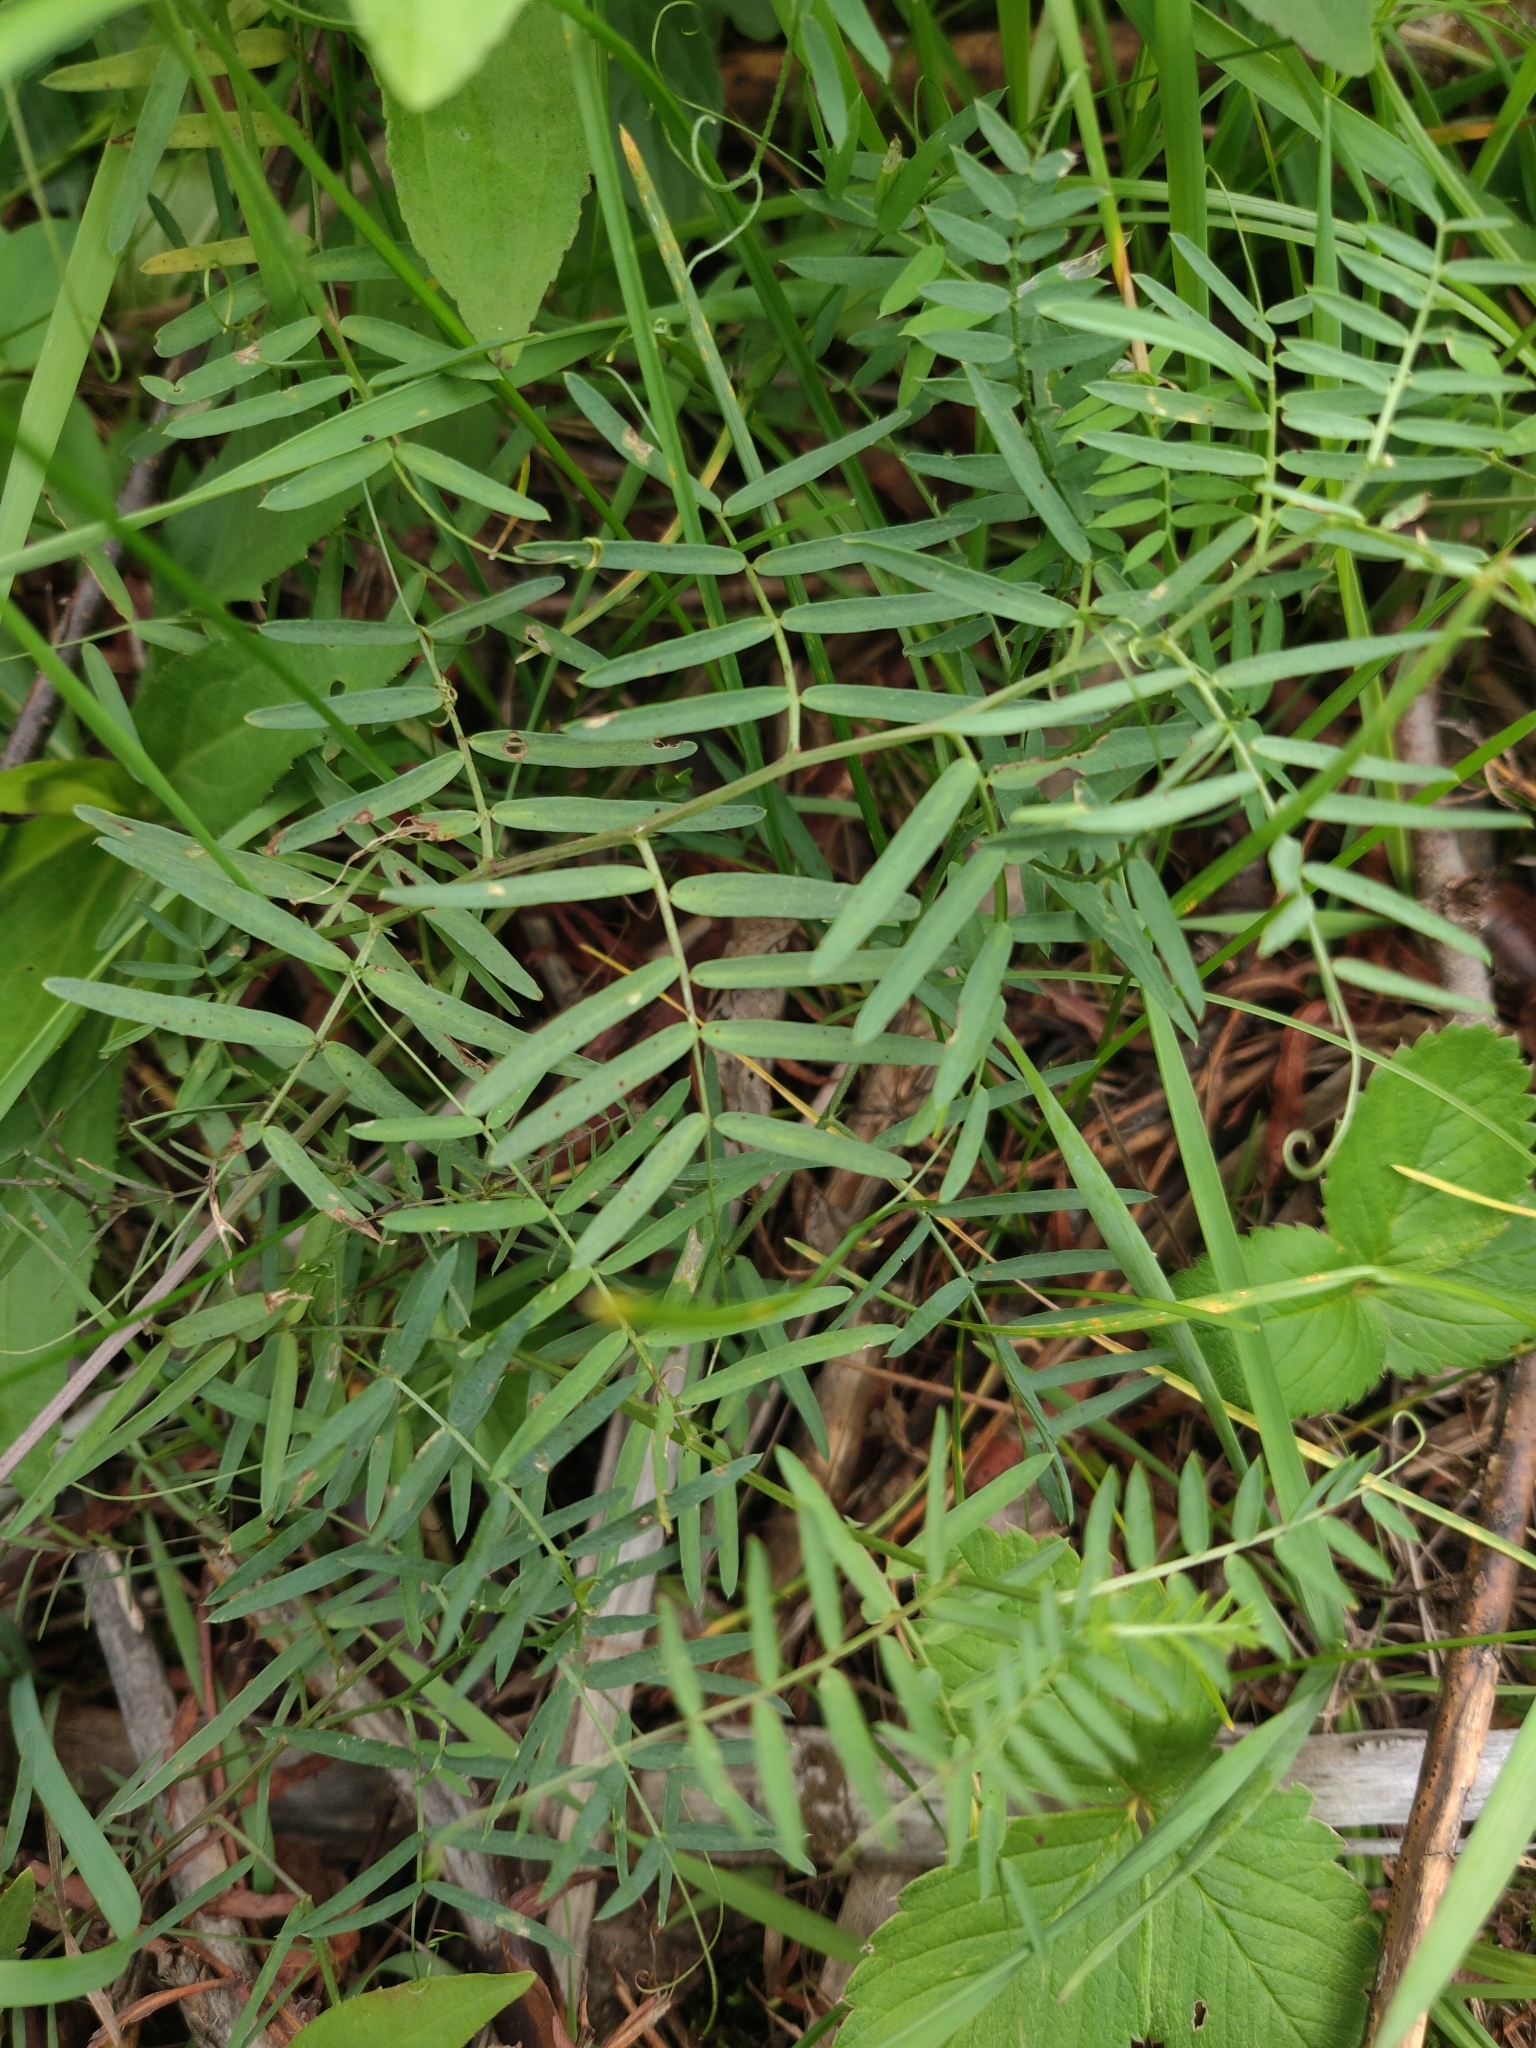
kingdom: Plantae
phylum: Tracheophyta
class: Magnoliopsida
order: Fabales
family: Fabaceae
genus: Vicia
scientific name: Vicia cracca
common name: Bird vetch
